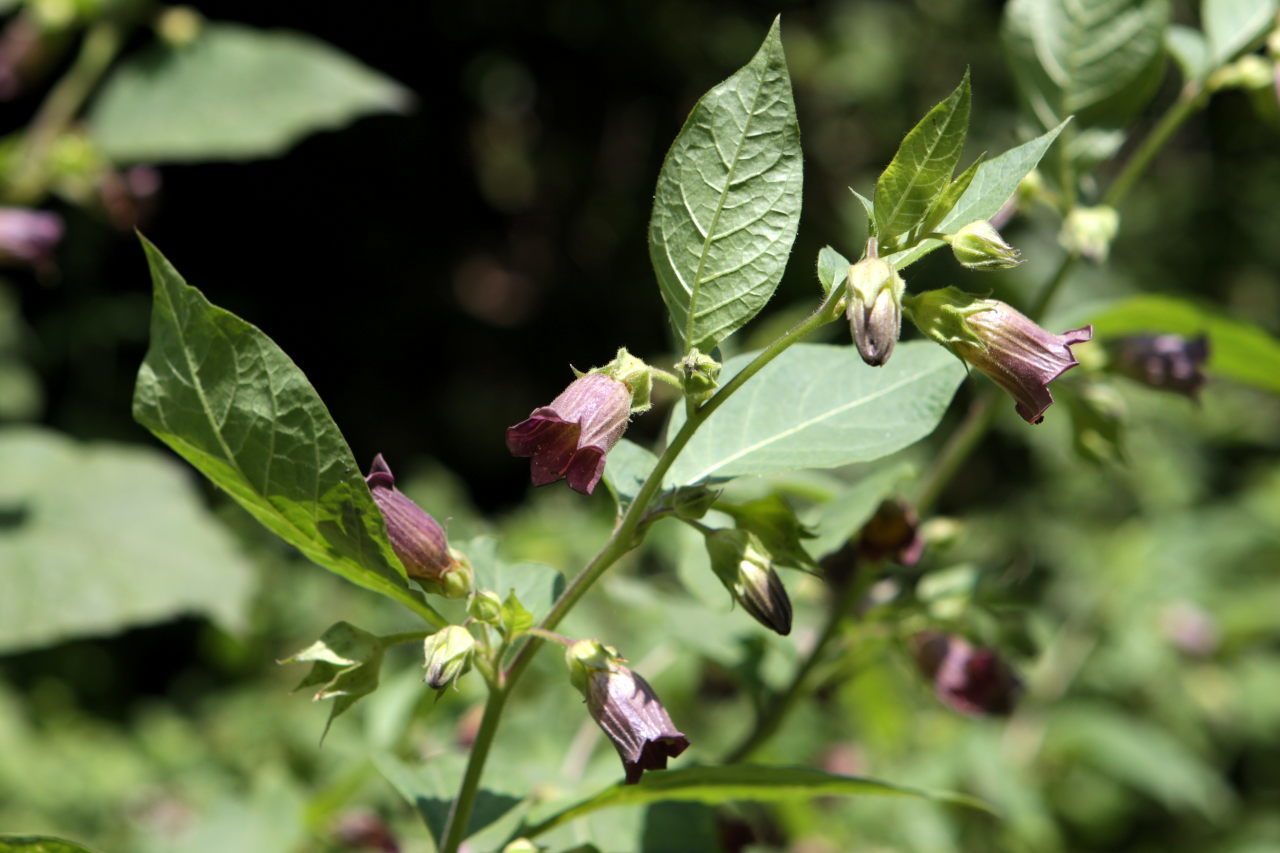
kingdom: Plantae
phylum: Tracheophyta
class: Magnoliopsida
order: Solanales
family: Solanaceae
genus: Atropa
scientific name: Atropa belladonna
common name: Deadly nightshade
